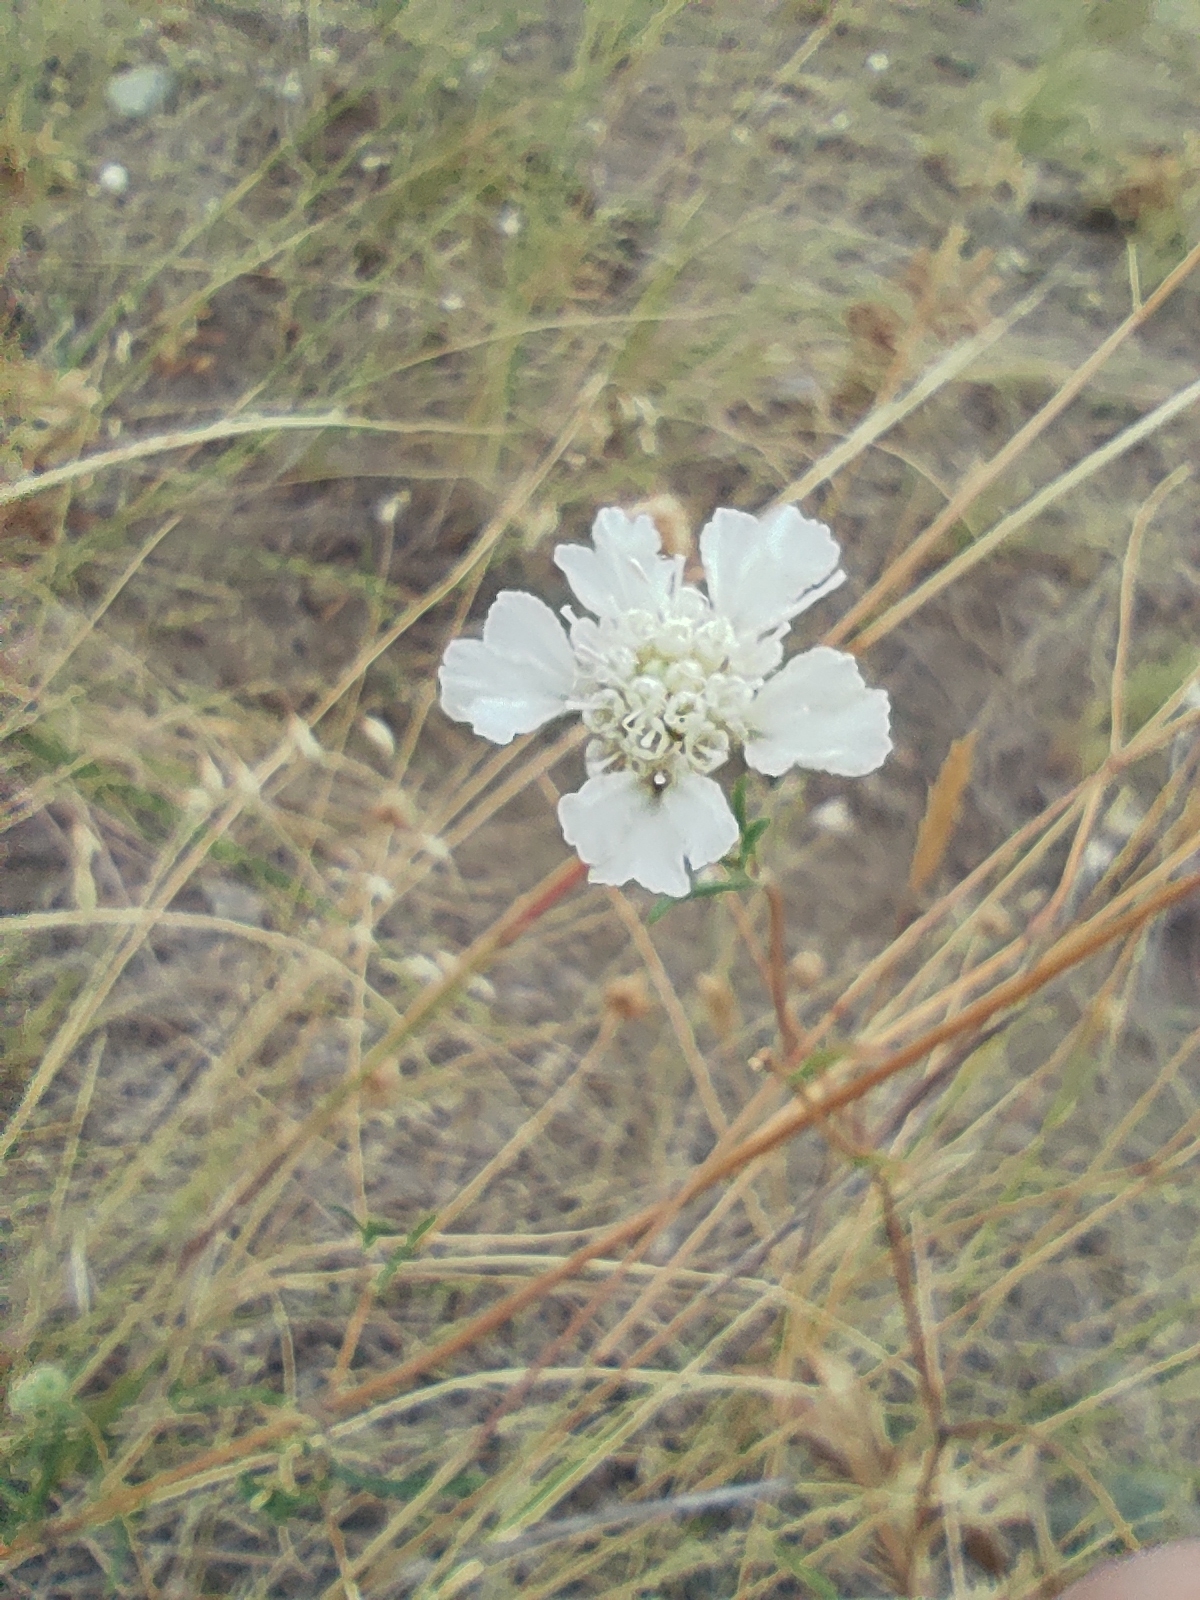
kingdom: Plantae
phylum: Tracheophyta
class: Magnoliopsida
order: Dipsacales
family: Caprifoliaceae
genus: Lomelosia
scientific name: Lomelosia argentea
